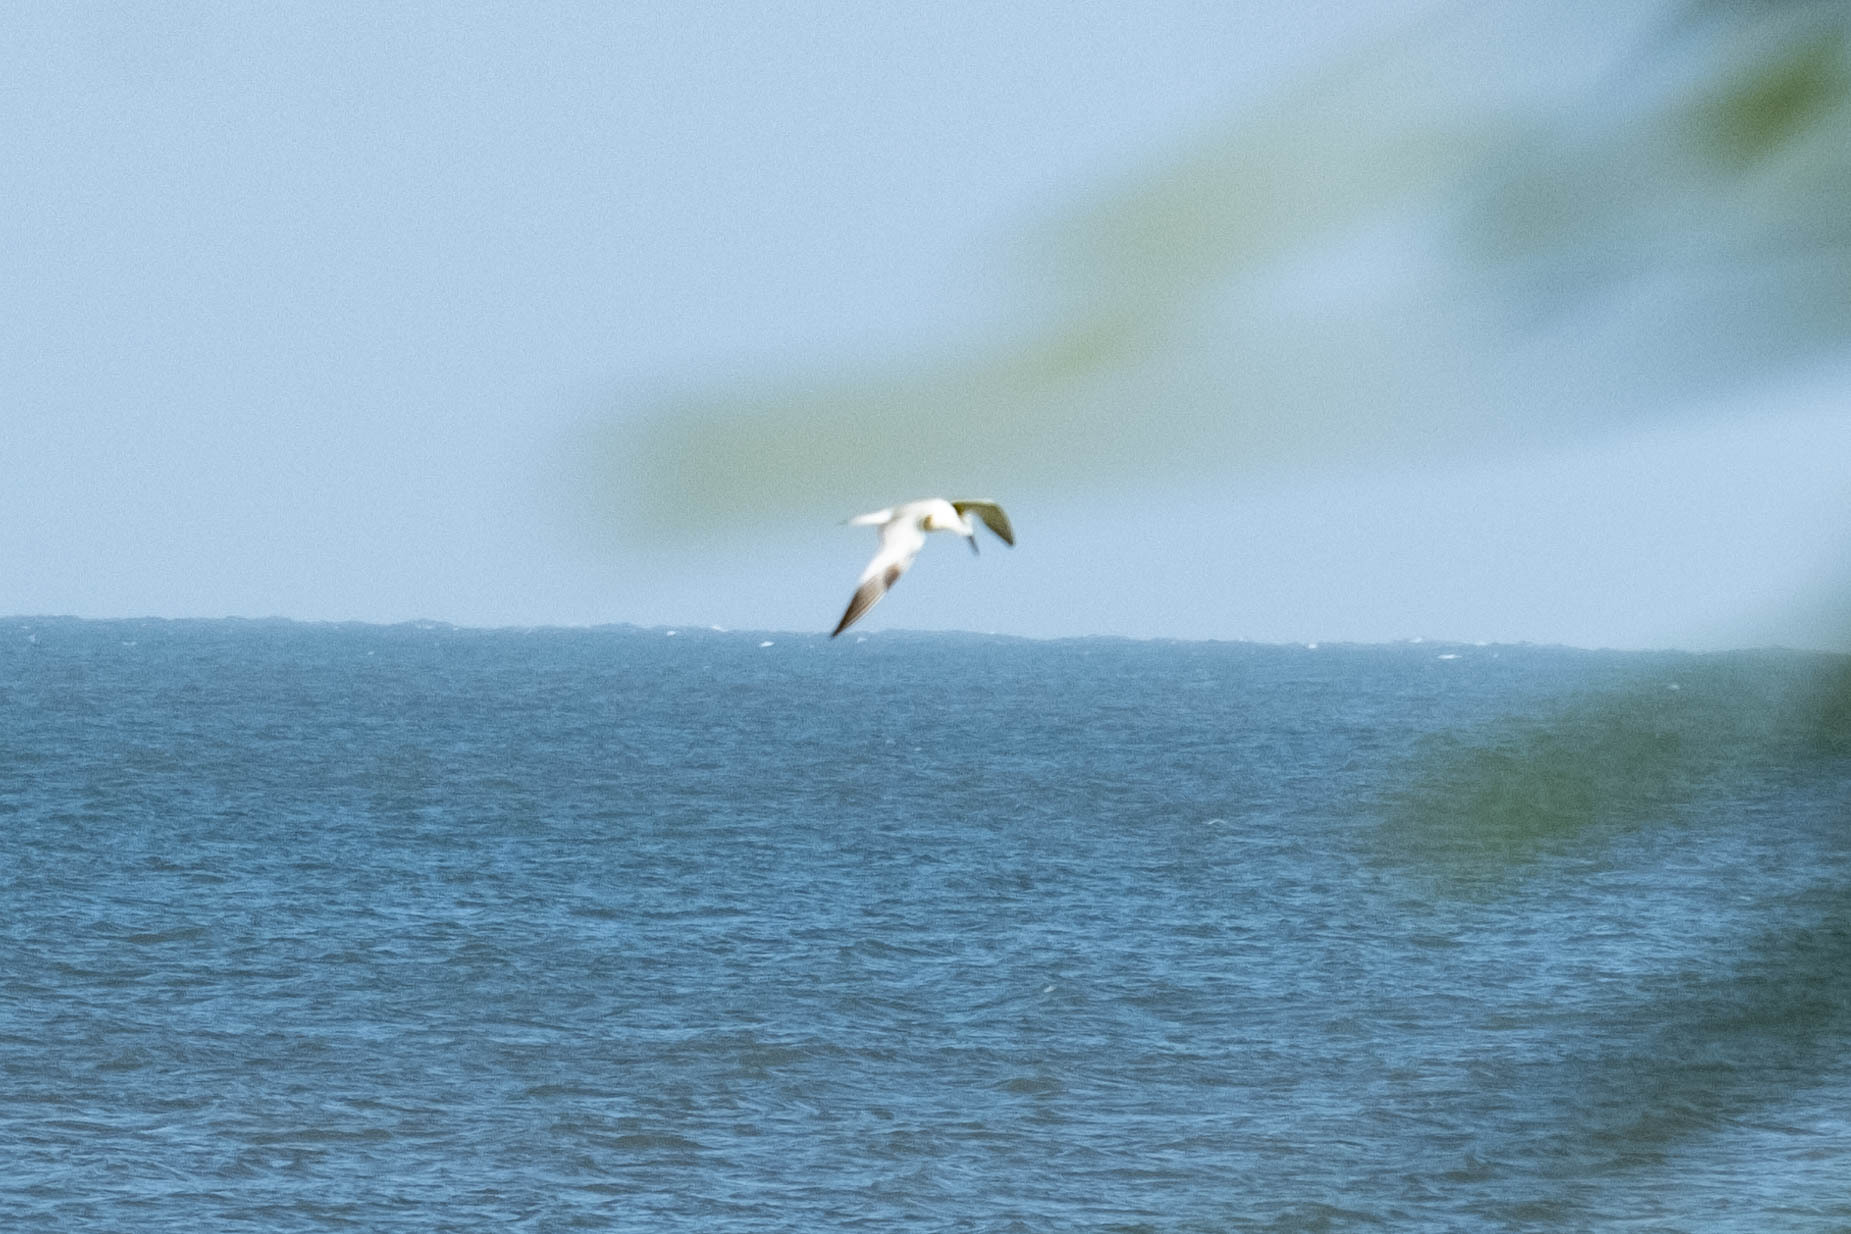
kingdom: Animalia
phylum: Chordata
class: Aves
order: Charadriiformes
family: Laridae
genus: Thalasseus
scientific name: Thalasseus sandvicensis
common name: Sandwich tern
